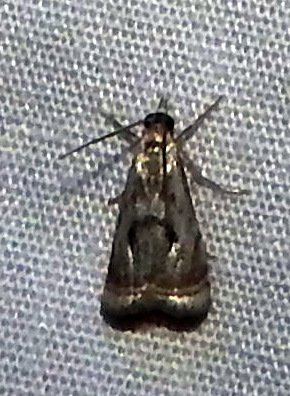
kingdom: Animalia
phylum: Arthropoda
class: Insecta
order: Lepidoptera
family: Crambidae
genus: Microcrambus
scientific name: Microcrambus elegans
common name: Elegant grass-veneer
